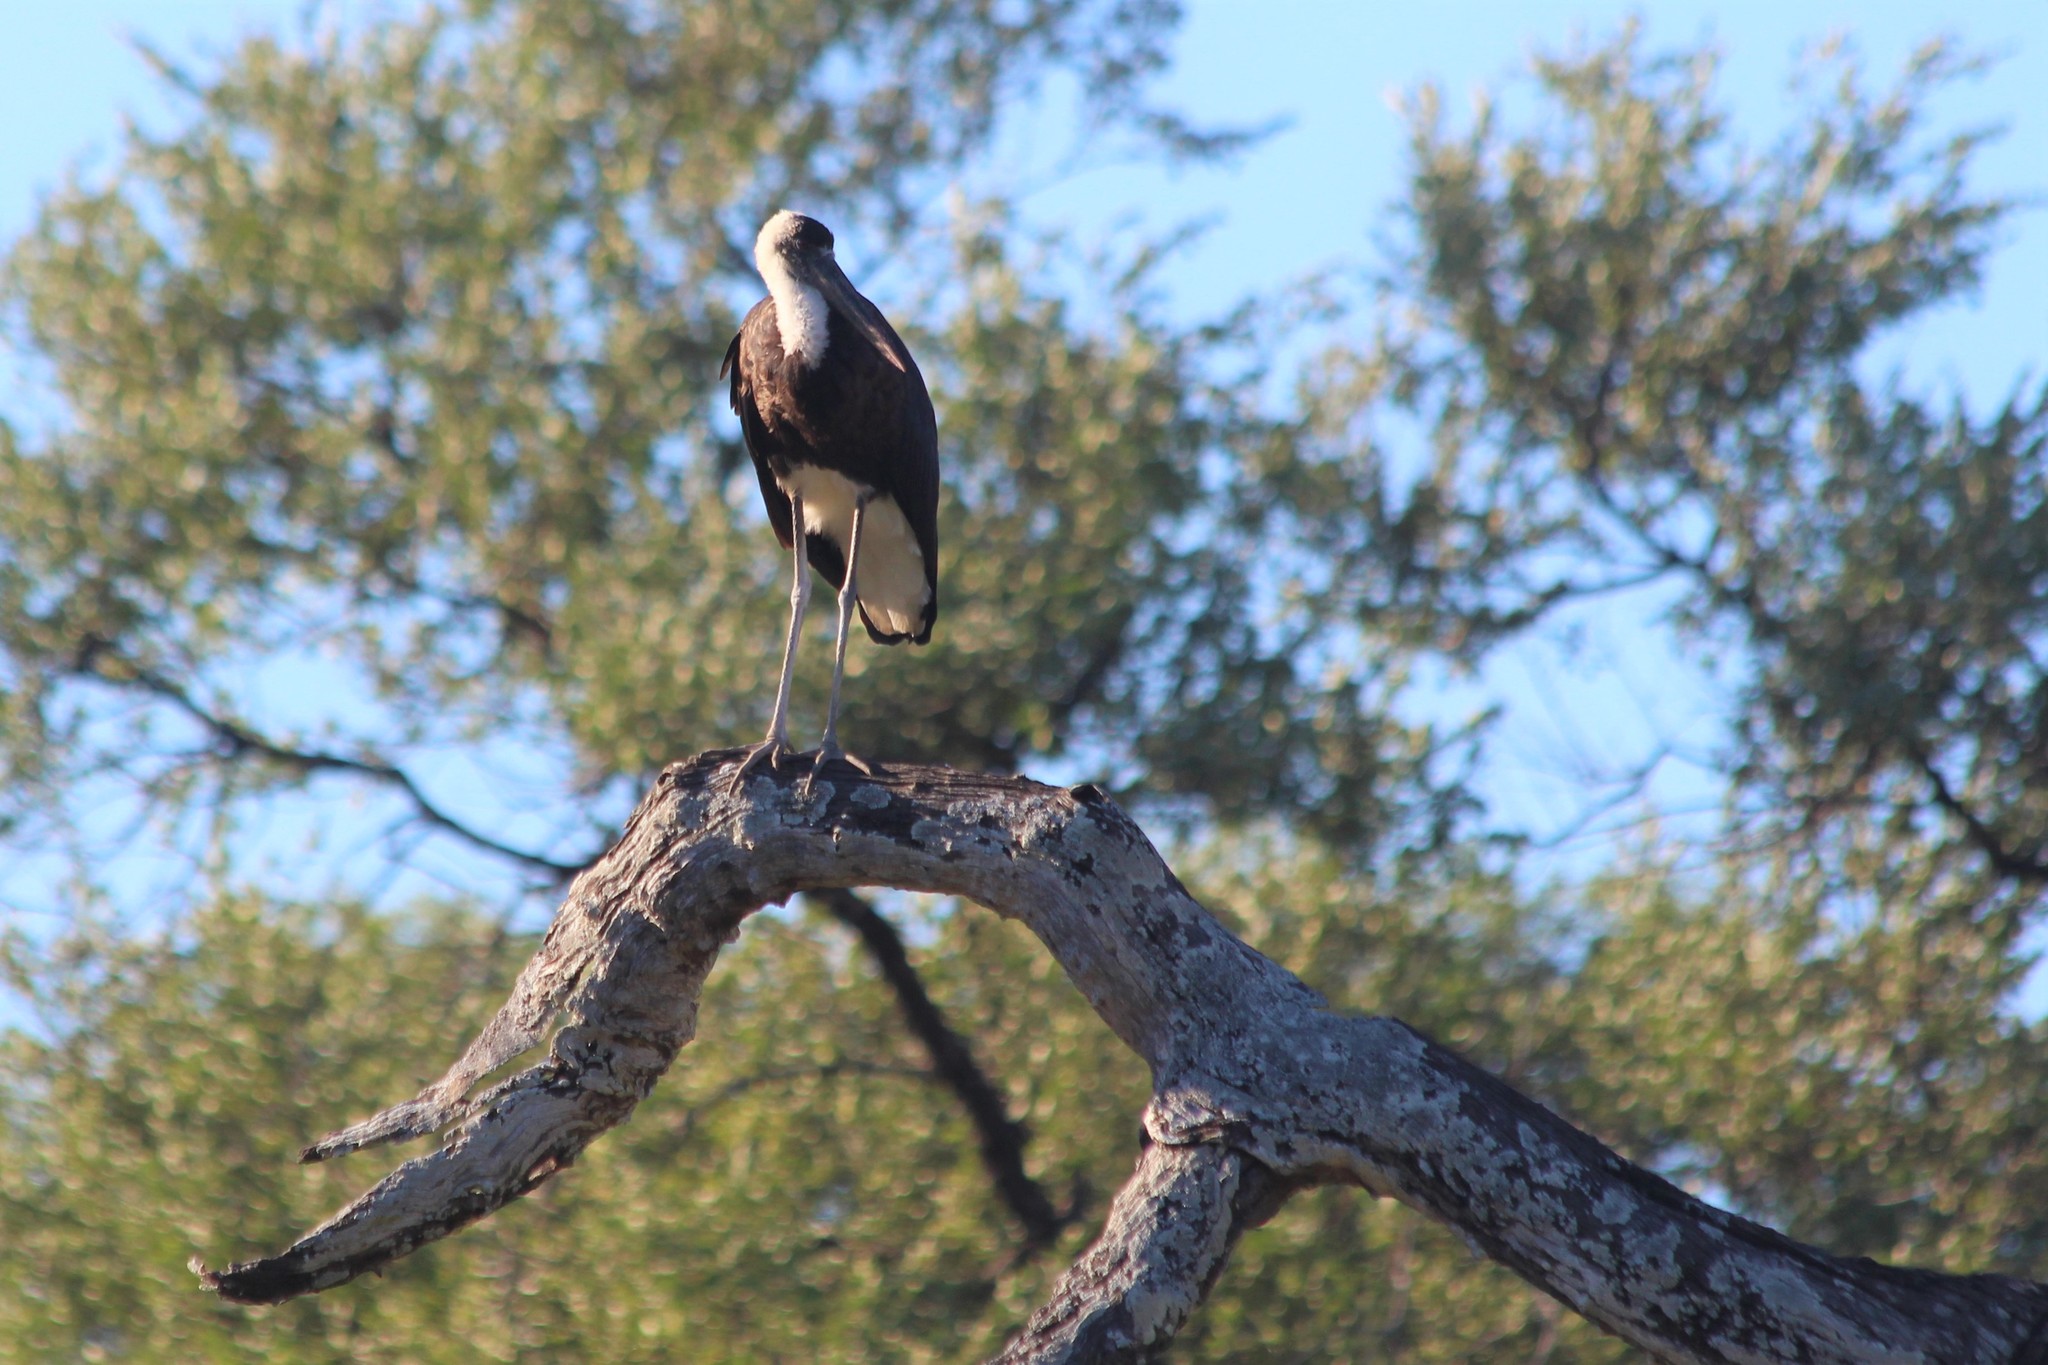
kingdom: Animalia
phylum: Chordata
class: Aves
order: Ciconiiformes
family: Ciconiidae
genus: Ciconia
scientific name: Ciconia microscelis
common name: African woollyneck
